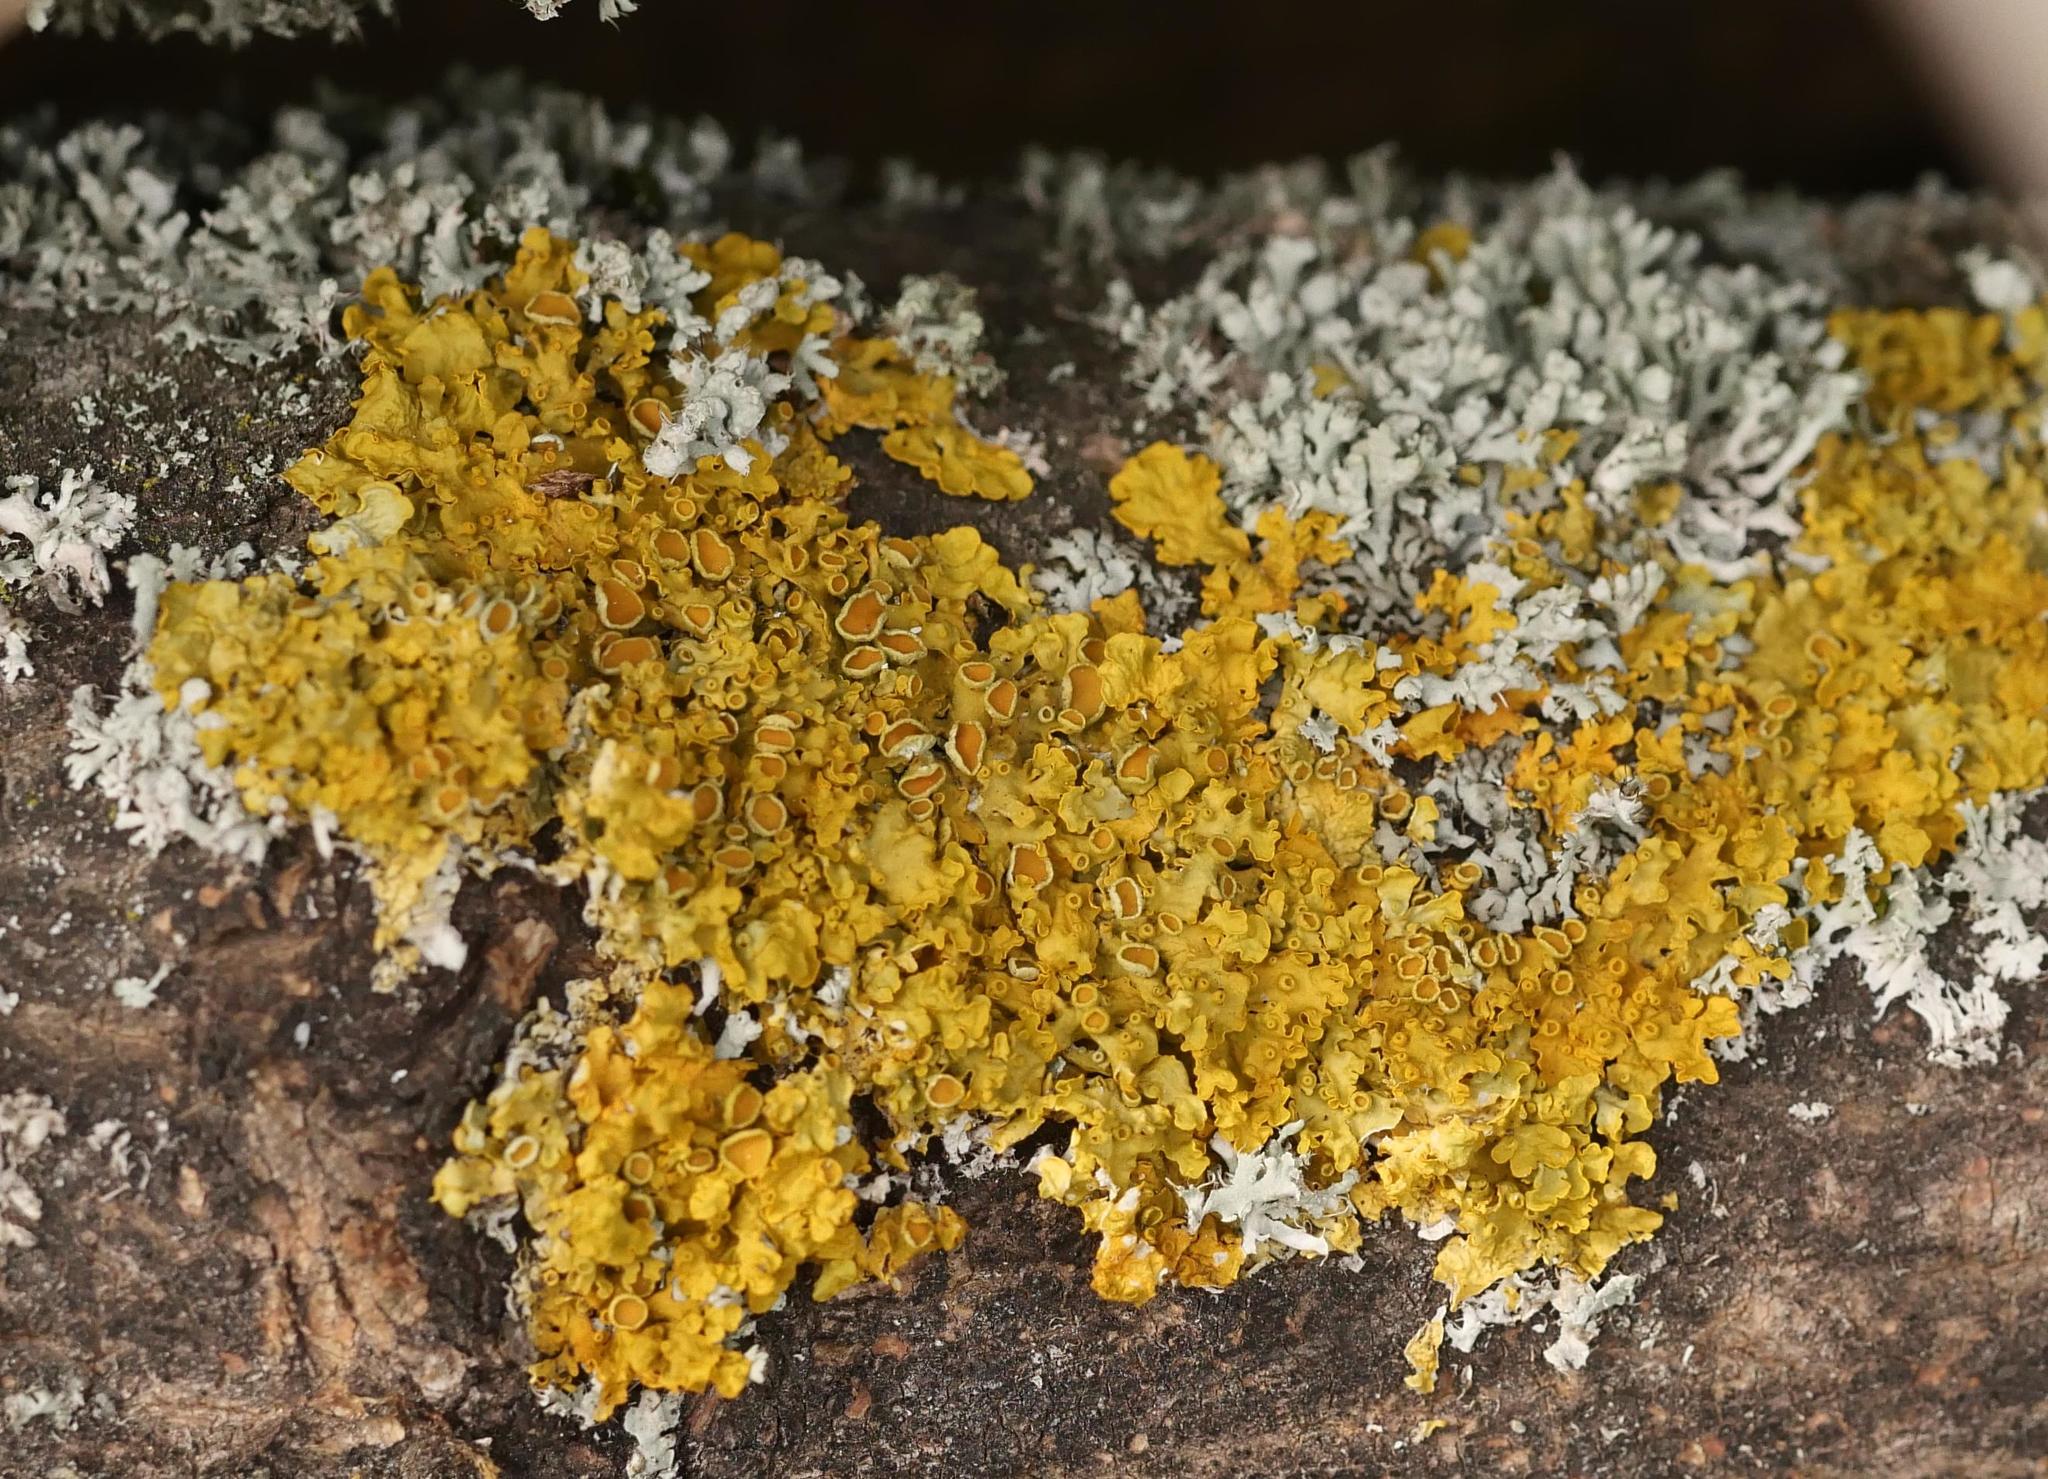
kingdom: Fungi
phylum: Ascomycota
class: Lecanoromycetes
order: Teloschistales
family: Teloschistaceae
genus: Xanthoria
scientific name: Xanthoria parietina
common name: Common orange lichen
